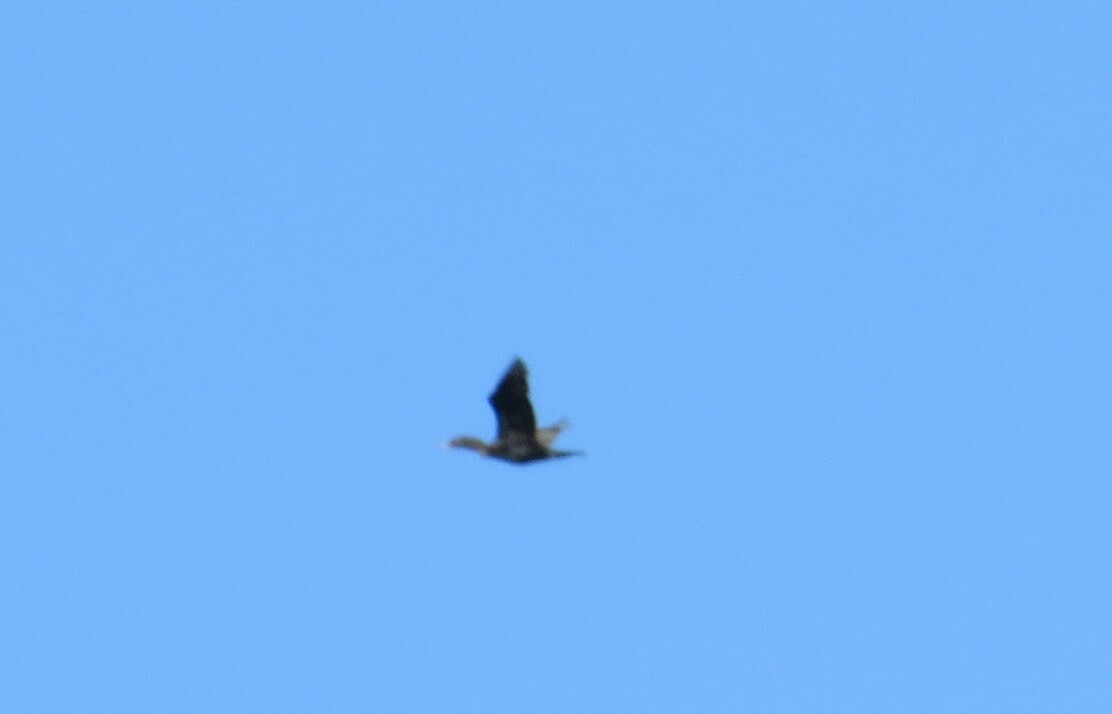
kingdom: Animalia
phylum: Chordata
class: Aves
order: Suliformes
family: Phalacrocoracidae
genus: Phalacrocorax
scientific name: Phalacrocorax auritus
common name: Double-crested cormorant
